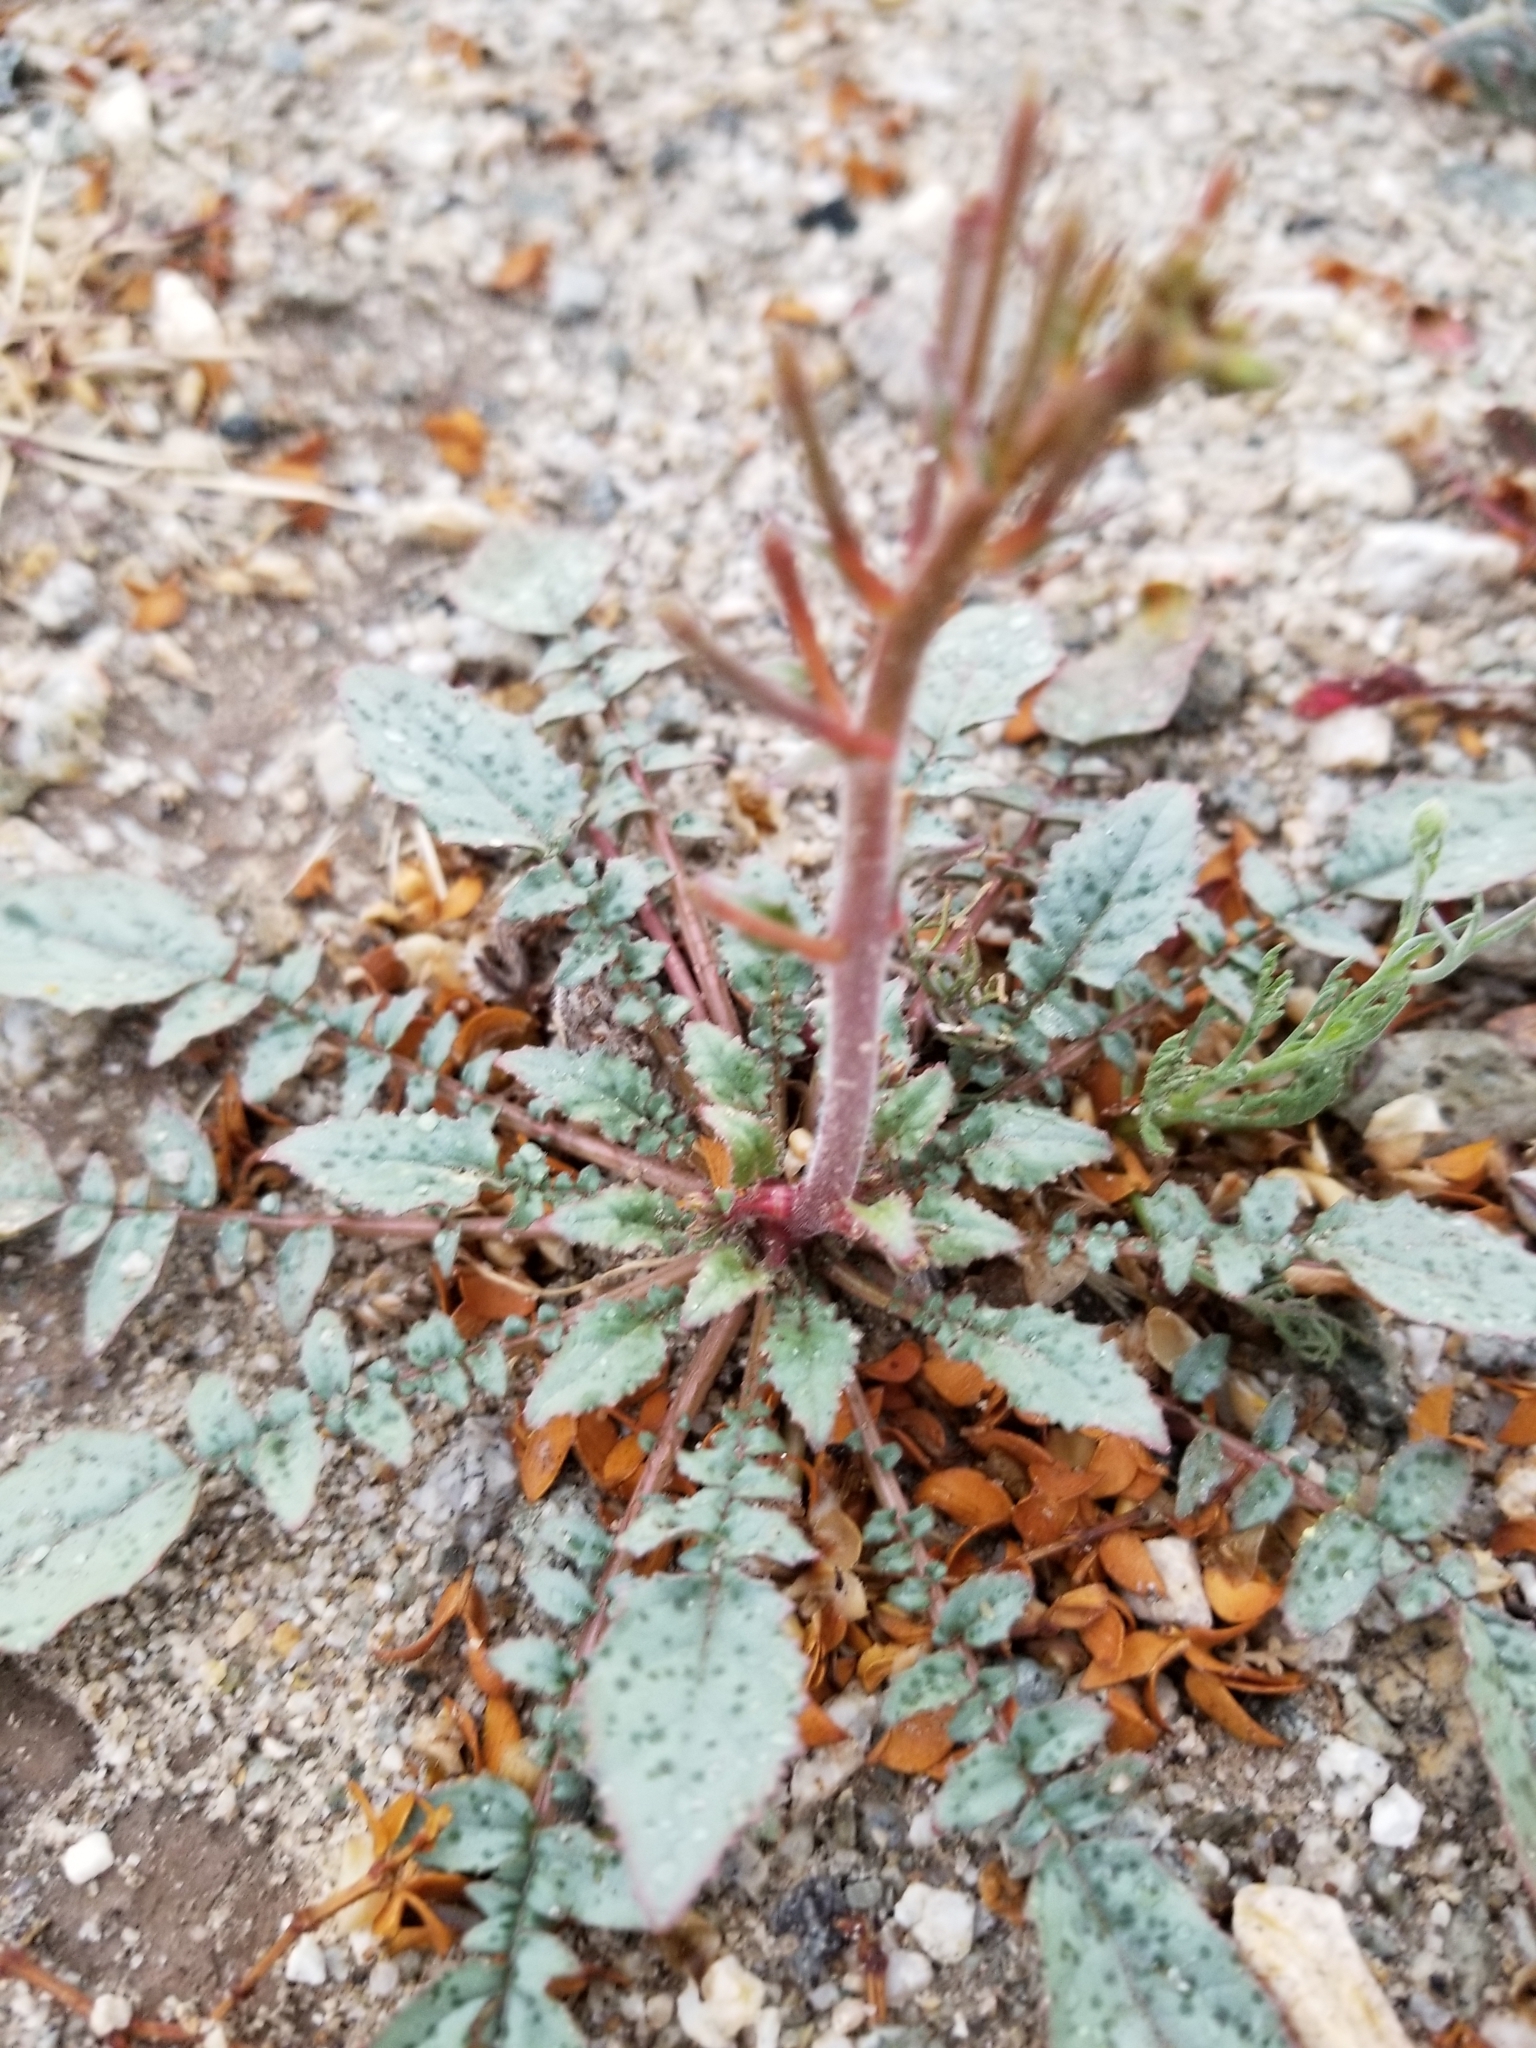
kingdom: Plantae
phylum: Tracheophyta
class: Magnoliopsida
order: Myrtales
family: Onagraceae
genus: Chylismia
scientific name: Chylismia claviformis
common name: Browneyes
